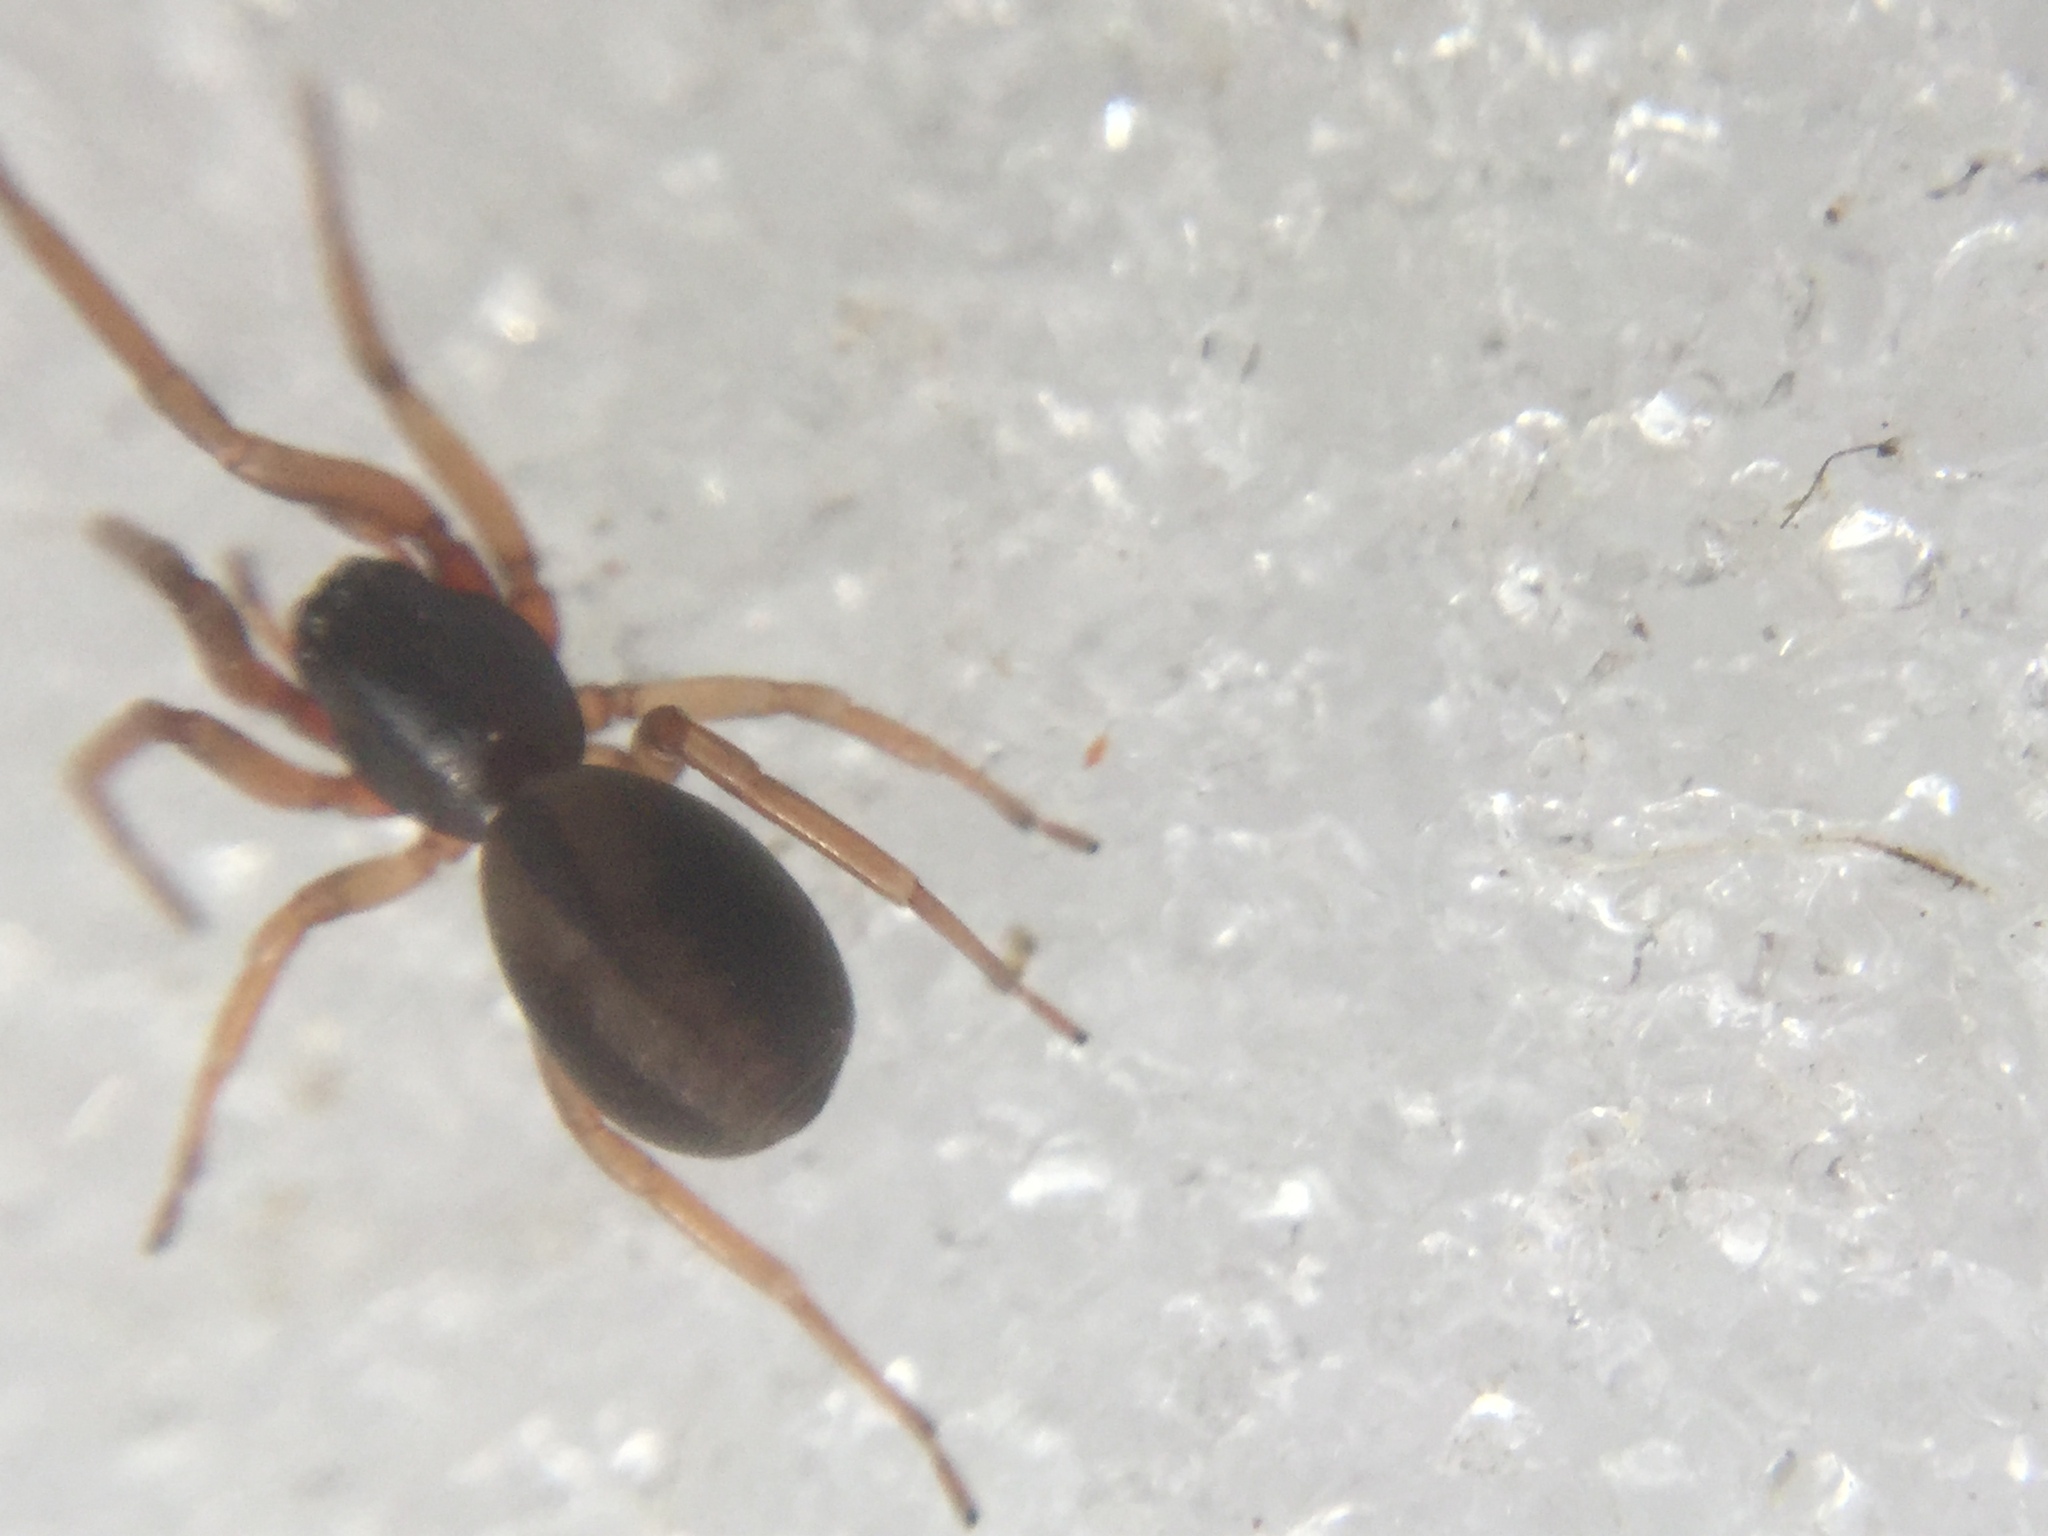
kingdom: Animalia
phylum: Arthropoda
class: Arachnida
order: Araneae
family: Trachelidae
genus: Meriola
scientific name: Meriola decepta
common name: Corinnid sac spiders
